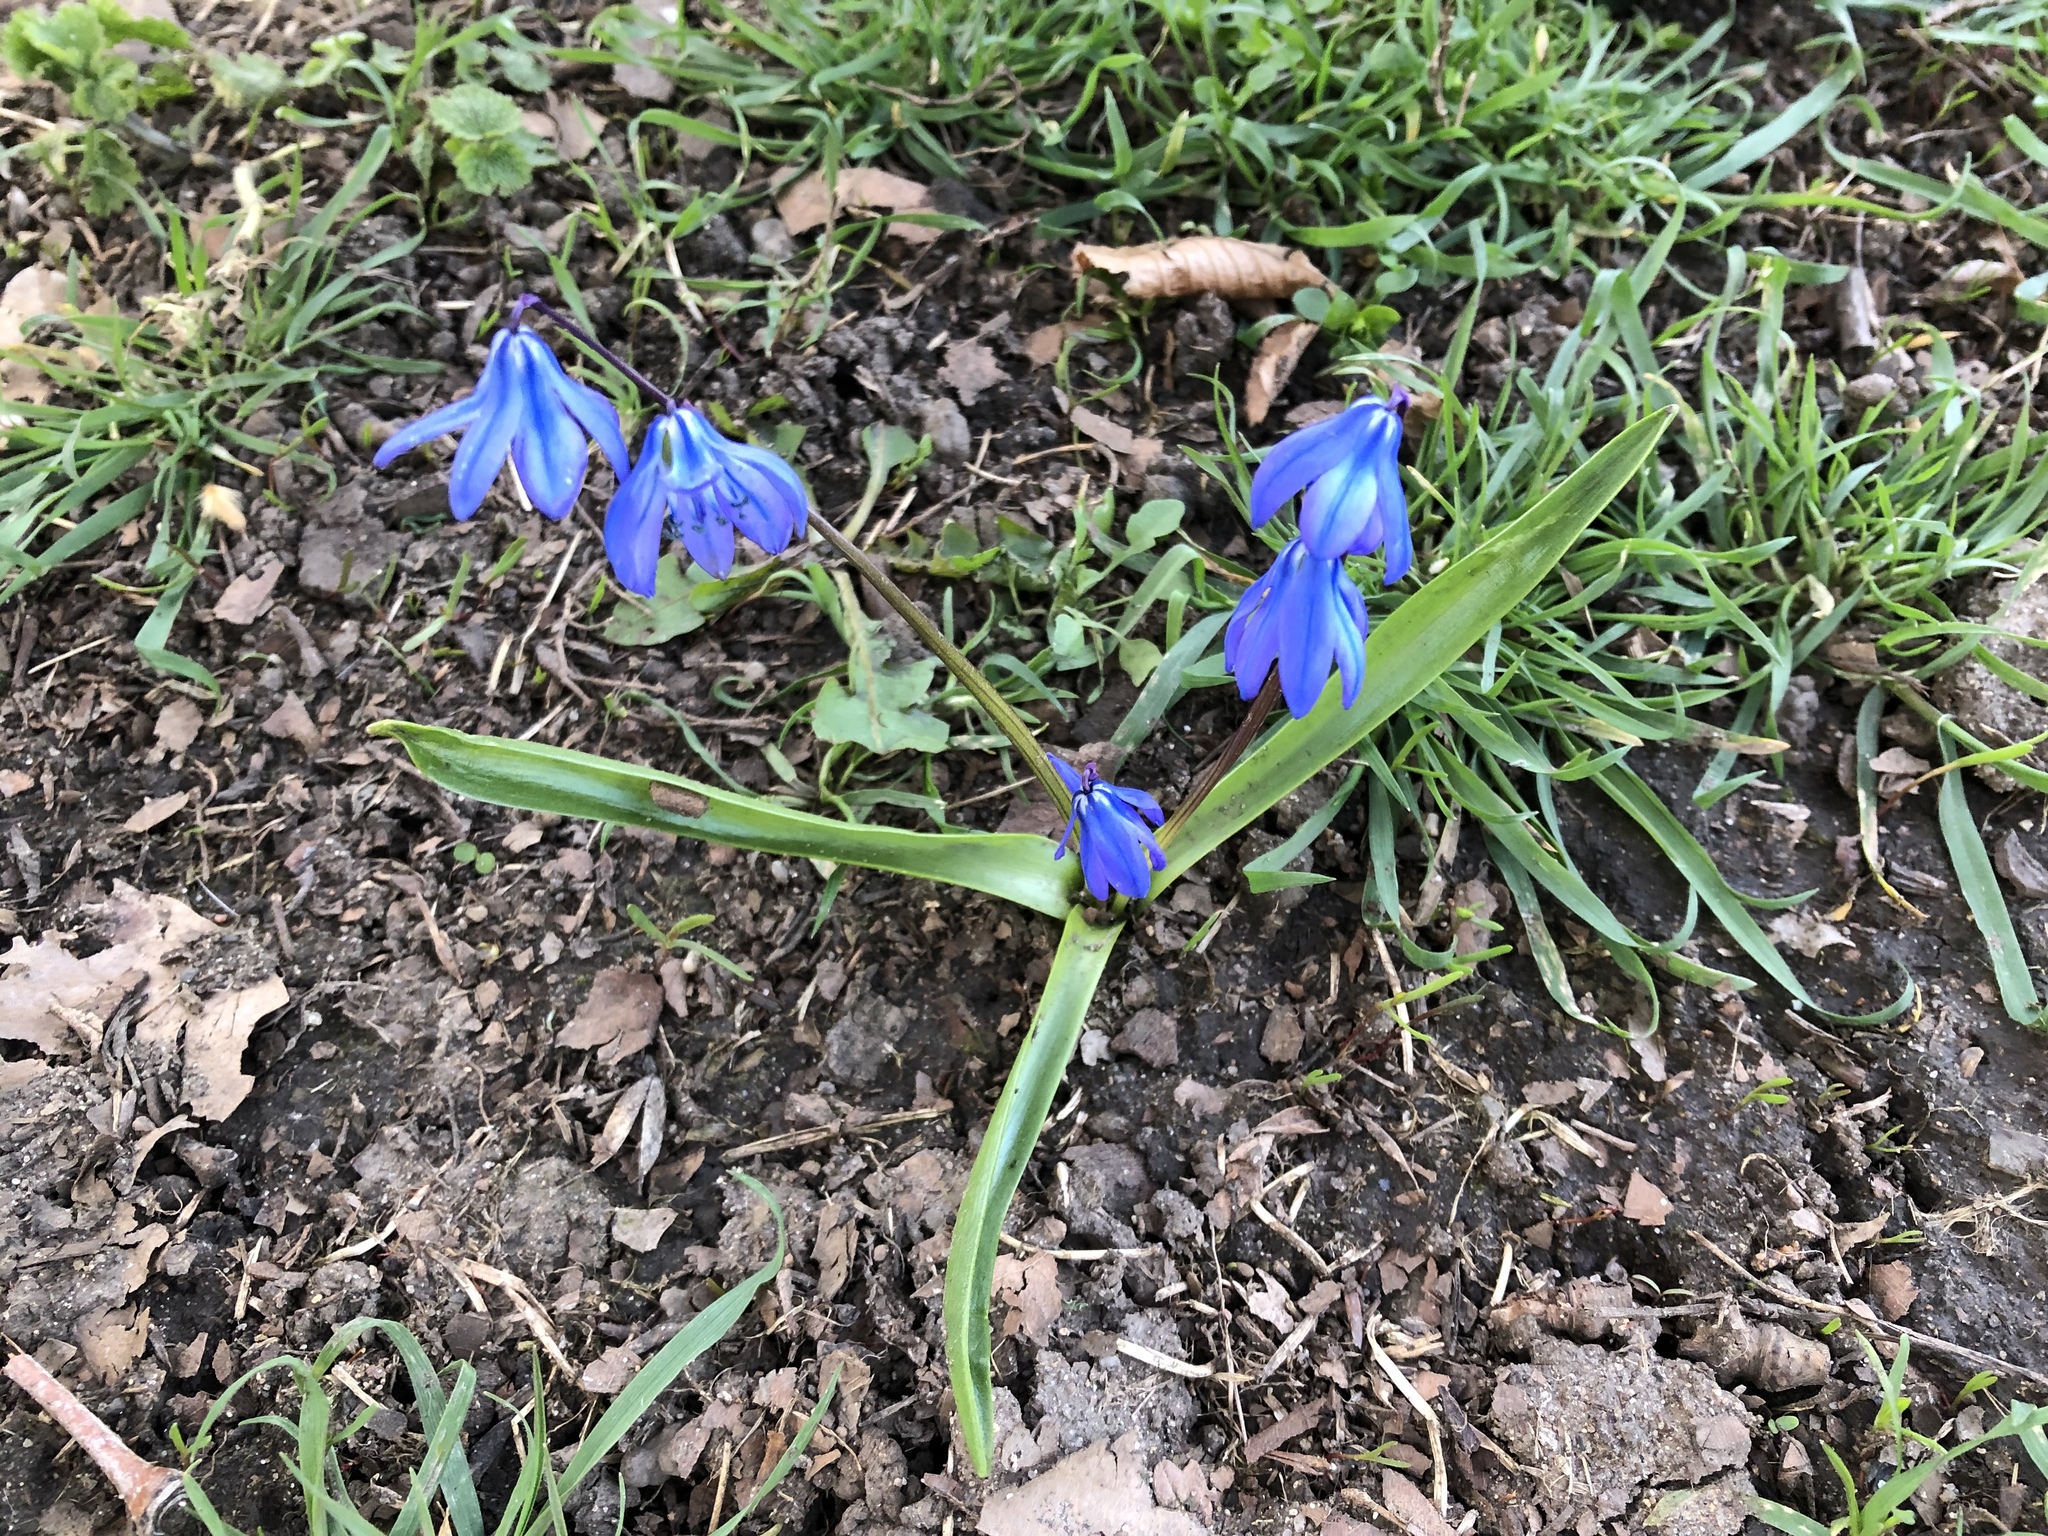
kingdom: Plantae
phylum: Tracheophyta
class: Liliopsida
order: Asparagales
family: Asparagaceae
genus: Scilla
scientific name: Scilla siberica
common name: Siberian squill
